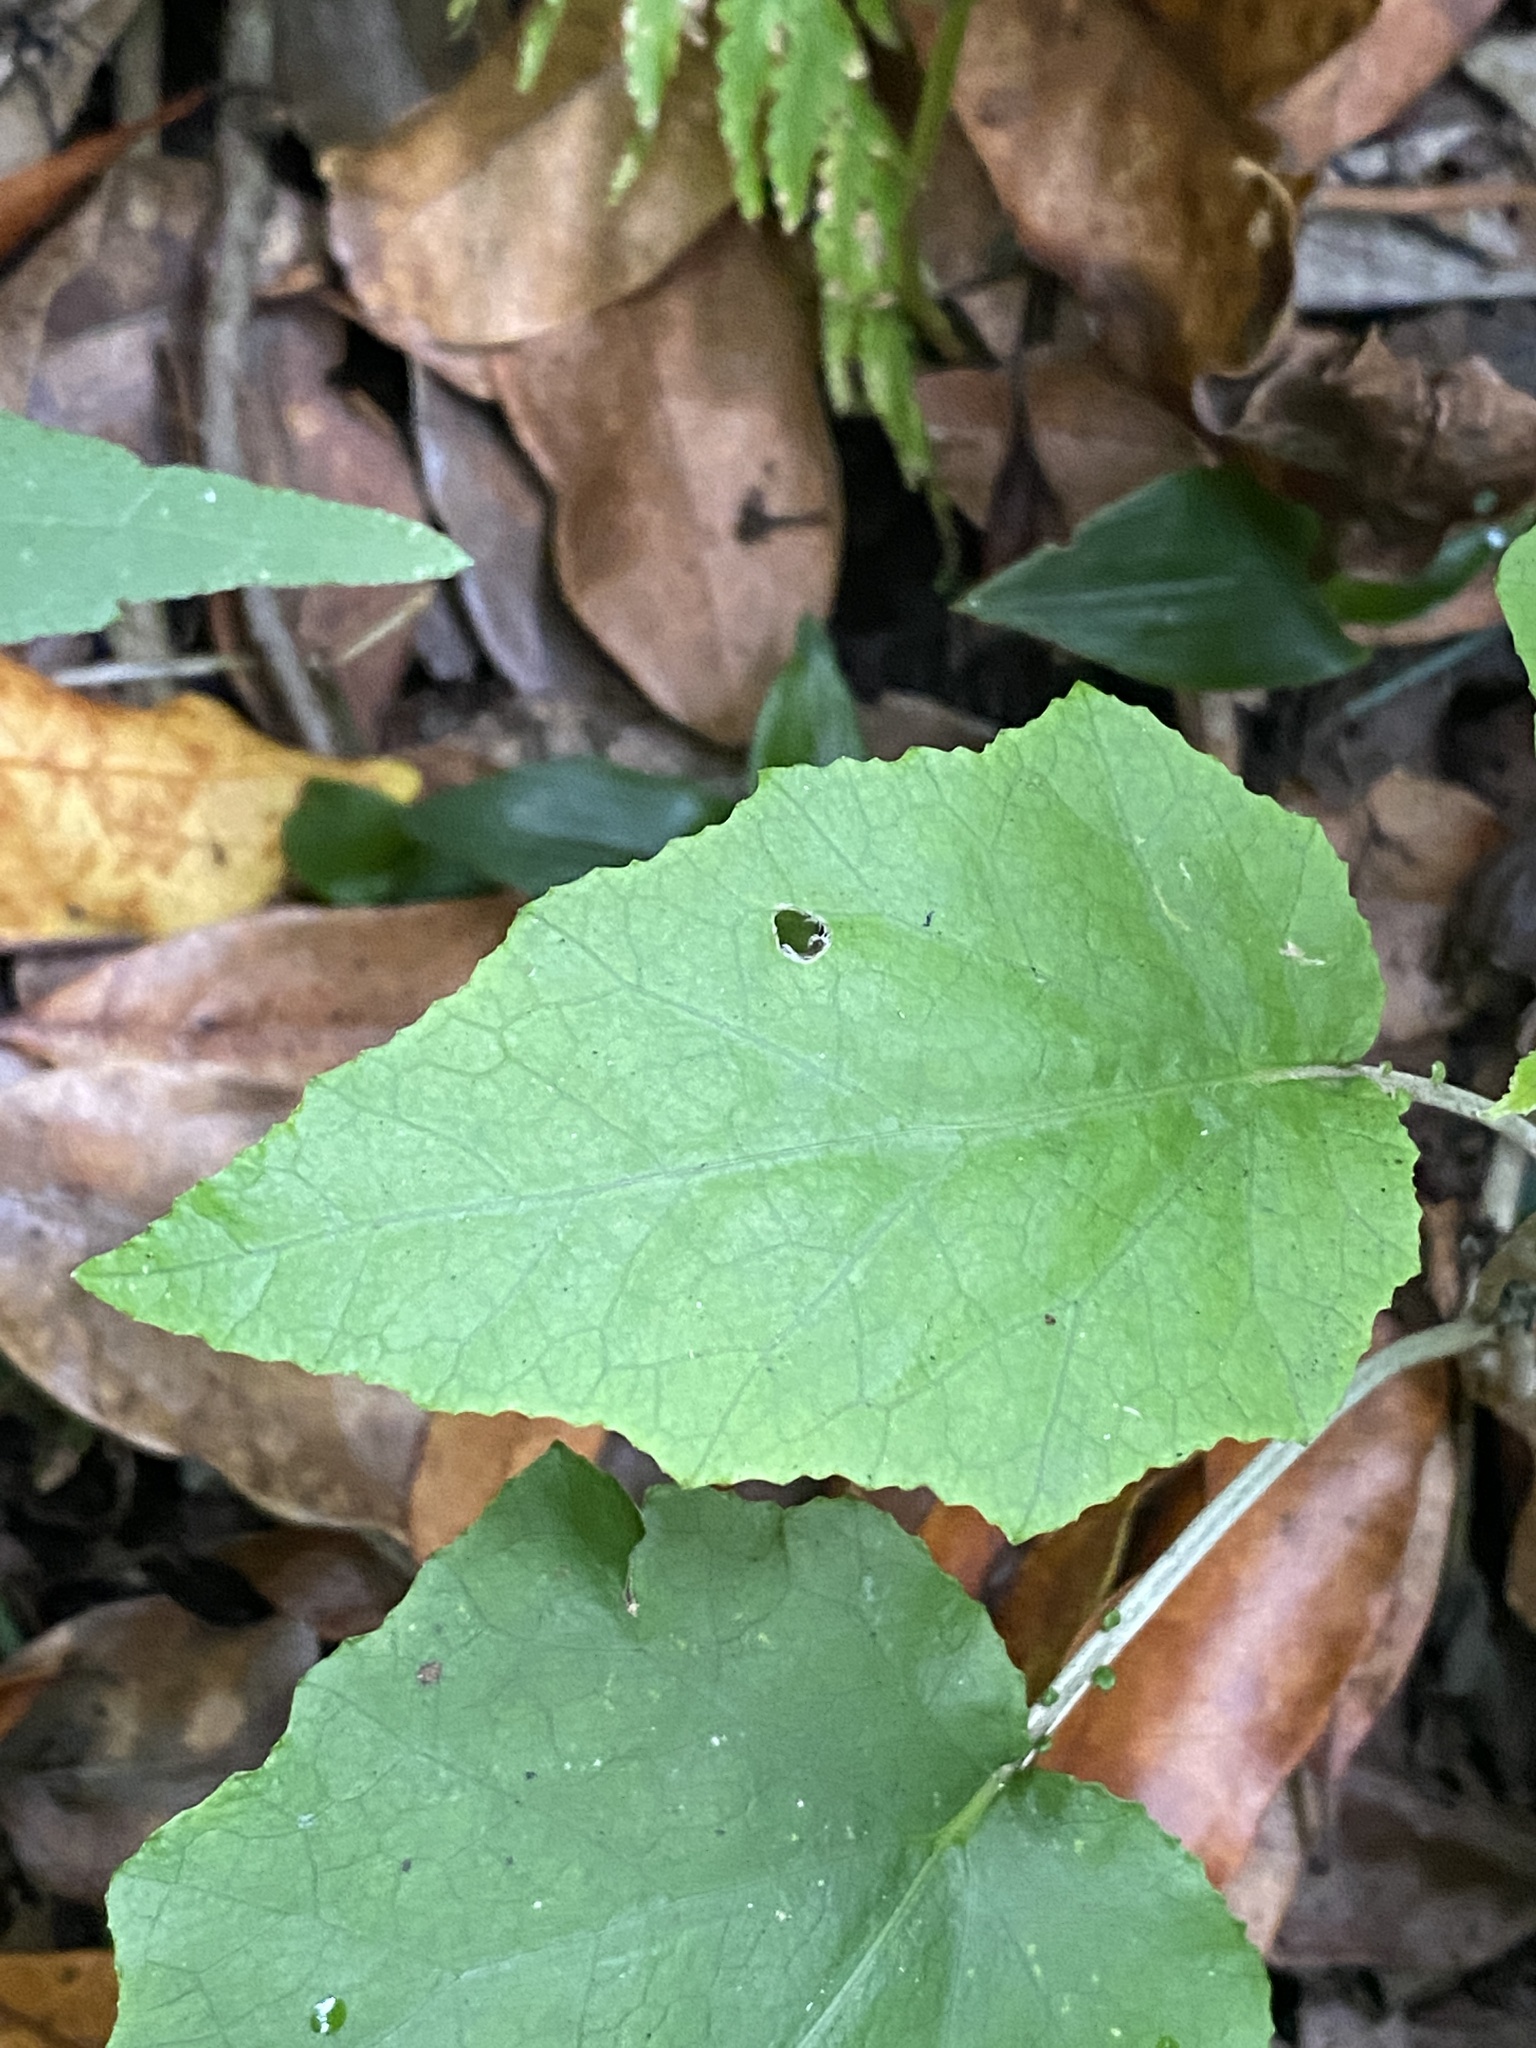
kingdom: Plantae
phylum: Tracheophyta
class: Magnoliopsida
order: Asterales
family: Asteraceae
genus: Pericallis
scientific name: Pericallis appendiculata
